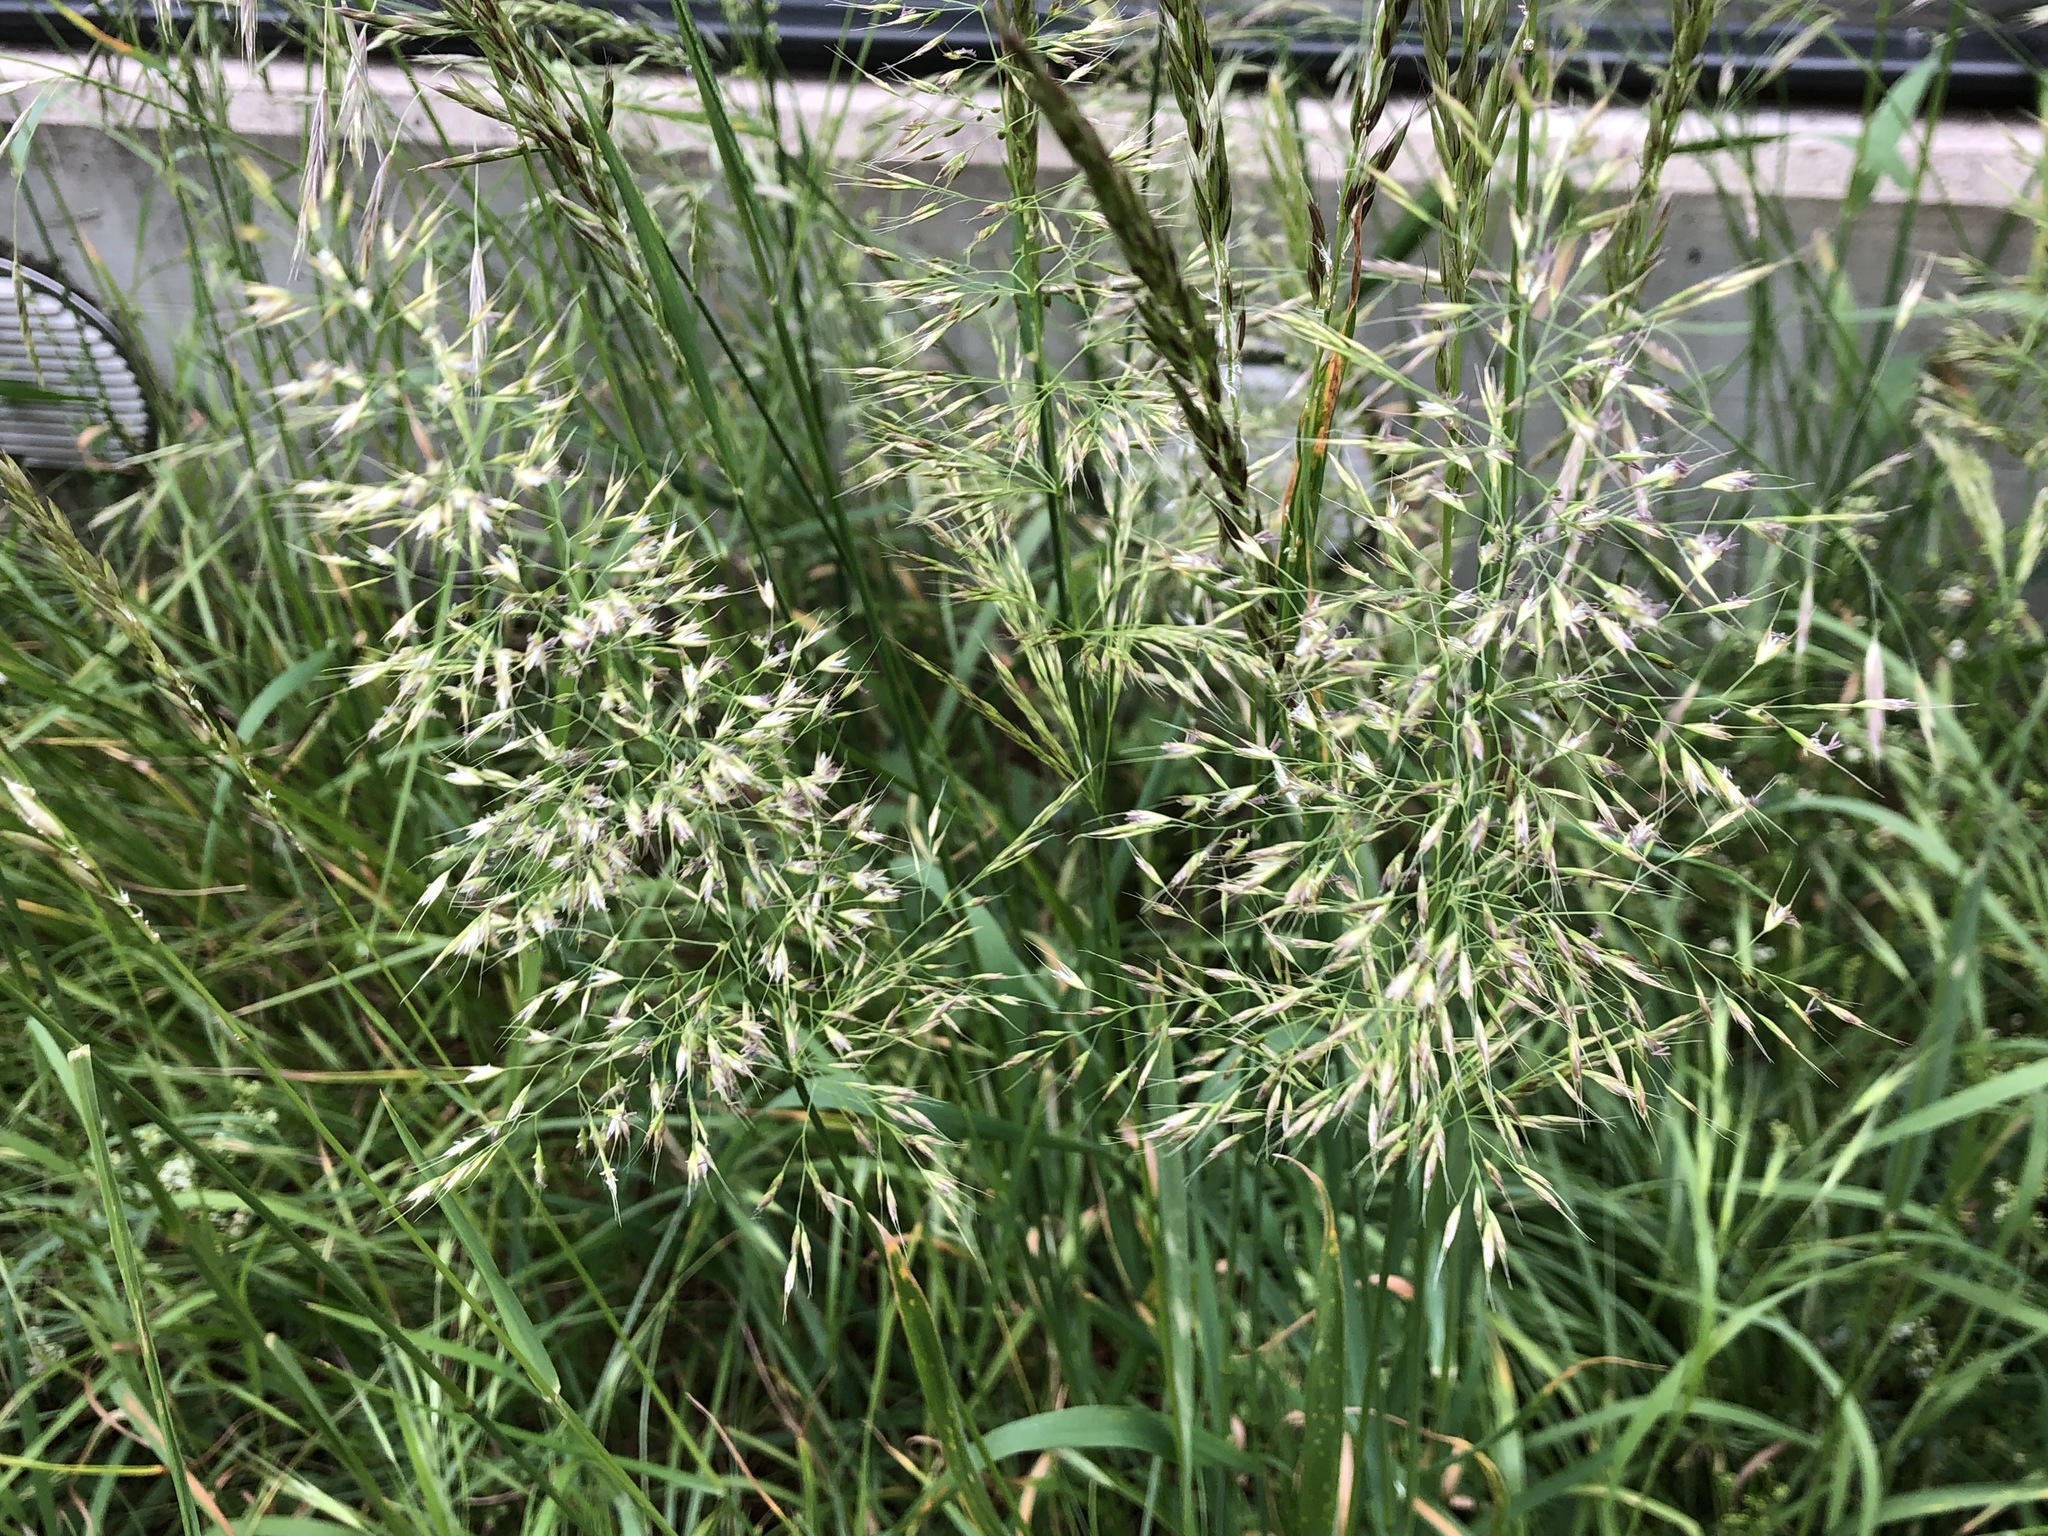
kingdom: Plantae
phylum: Tracheophyta
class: Liliopsida
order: Poales
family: Poaceae
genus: Trisetum
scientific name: Trisetum flavescens
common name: Yellow oat-grass
